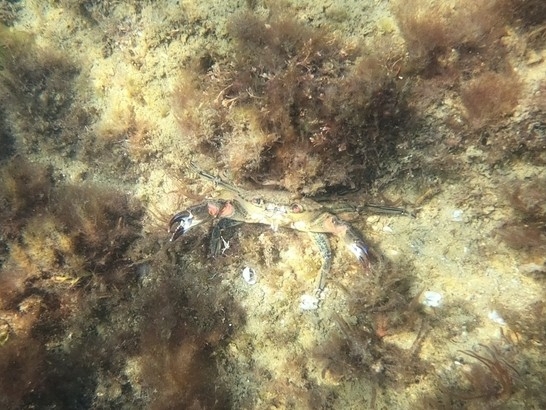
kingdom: Animalia
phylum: Arthropoda
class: Malacostraca
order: Decapoda
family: Polybiidae
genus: Necora
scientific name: Necora puber
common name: Velvet swimming crab
